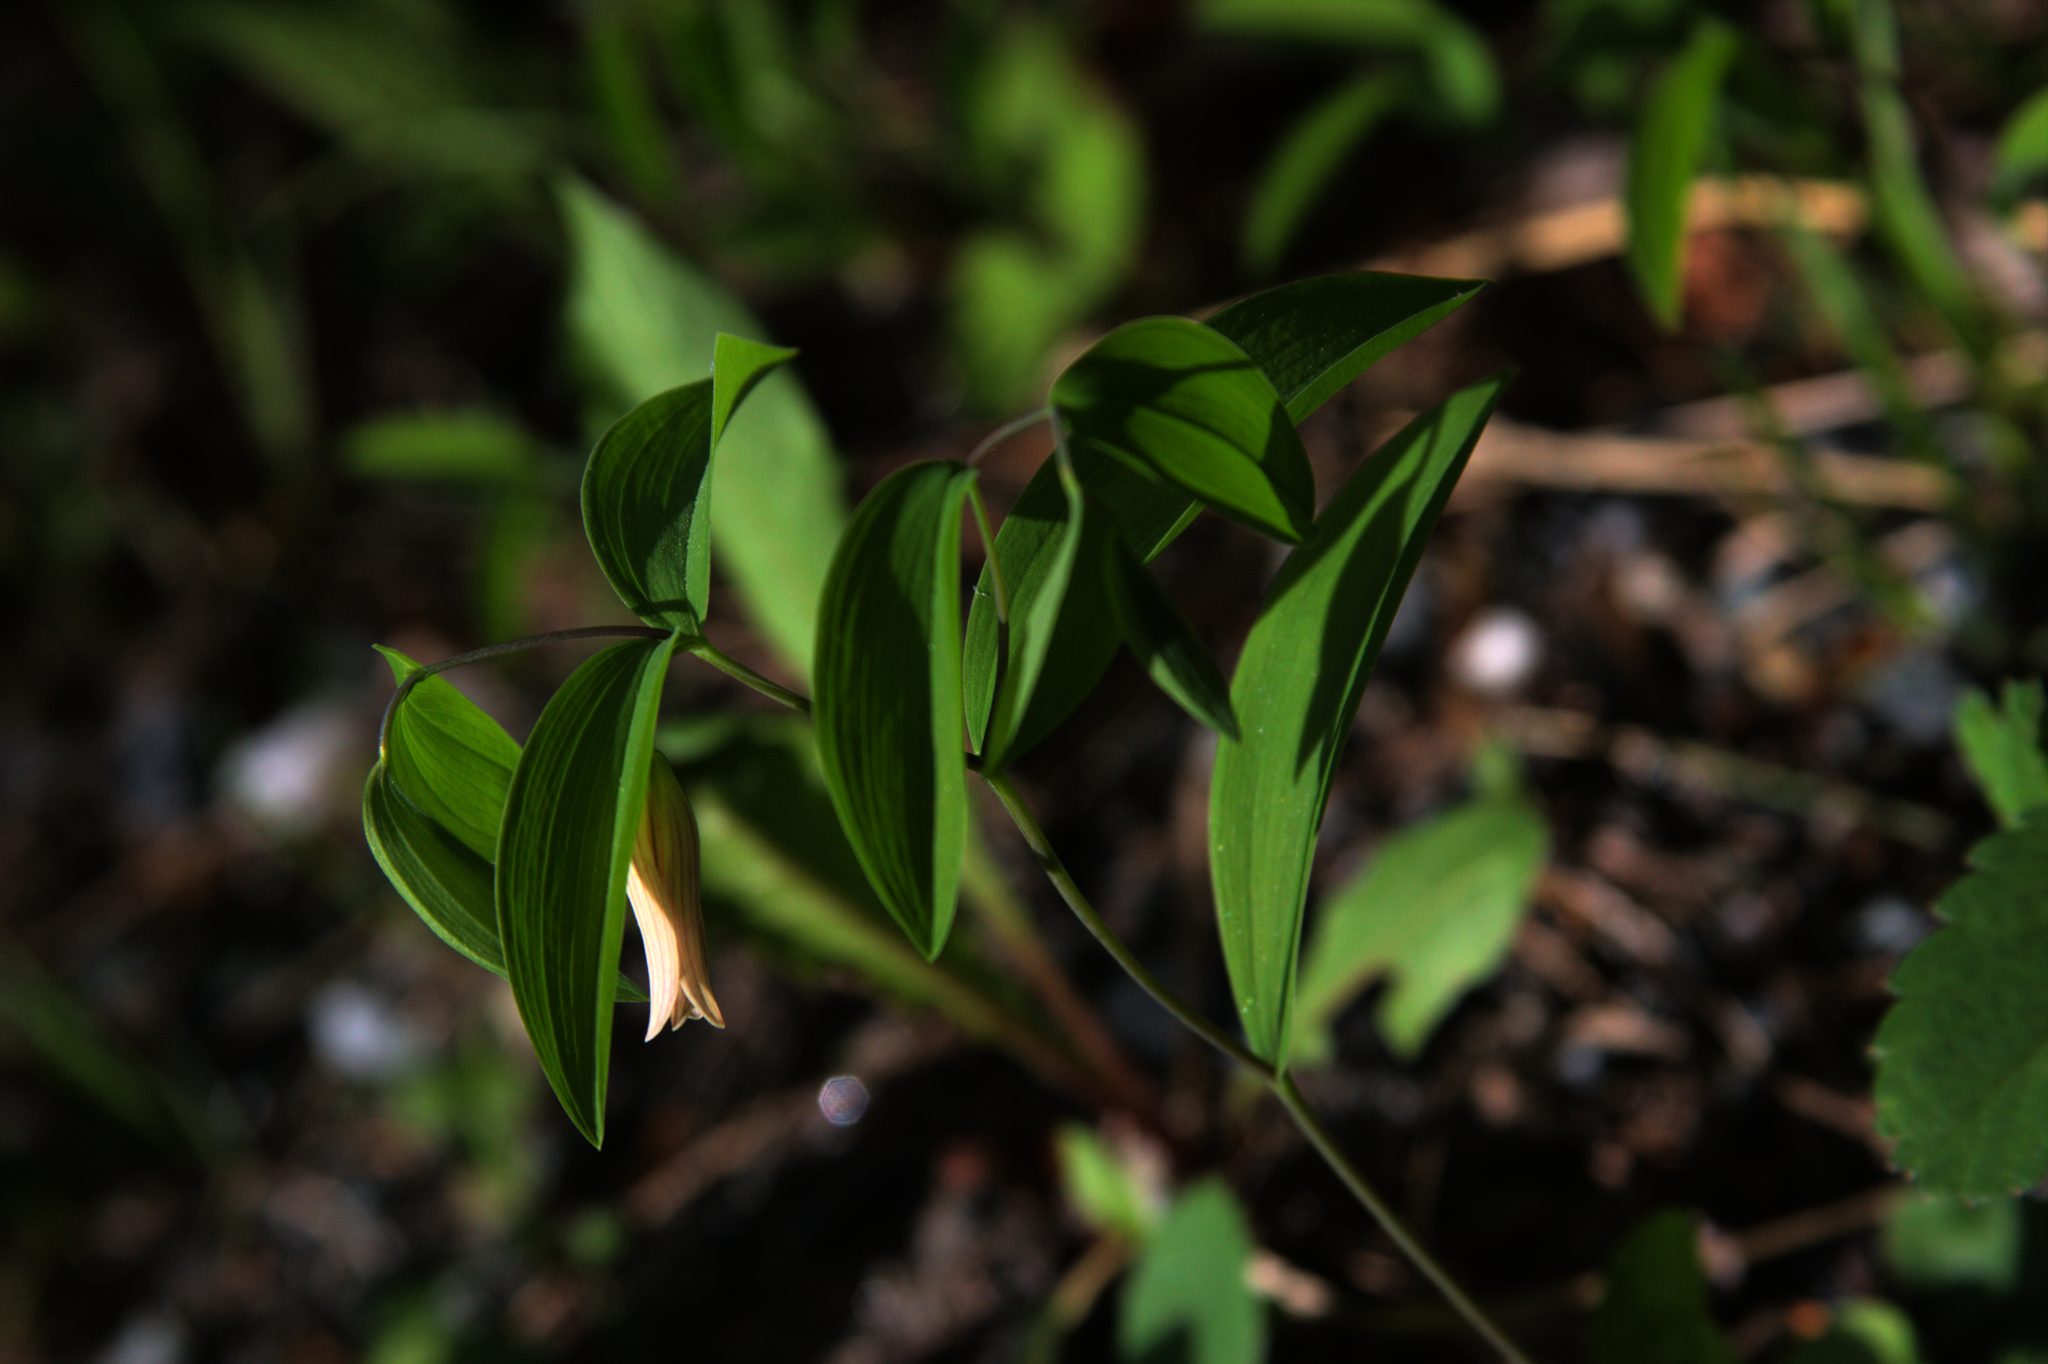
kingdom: Plantae
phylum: Tracheophyta
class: Liliopsida
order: Liliales
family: Colchicaceae
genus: Uvularia
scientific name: Uvularia sessilifolia
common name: Straw-lily
